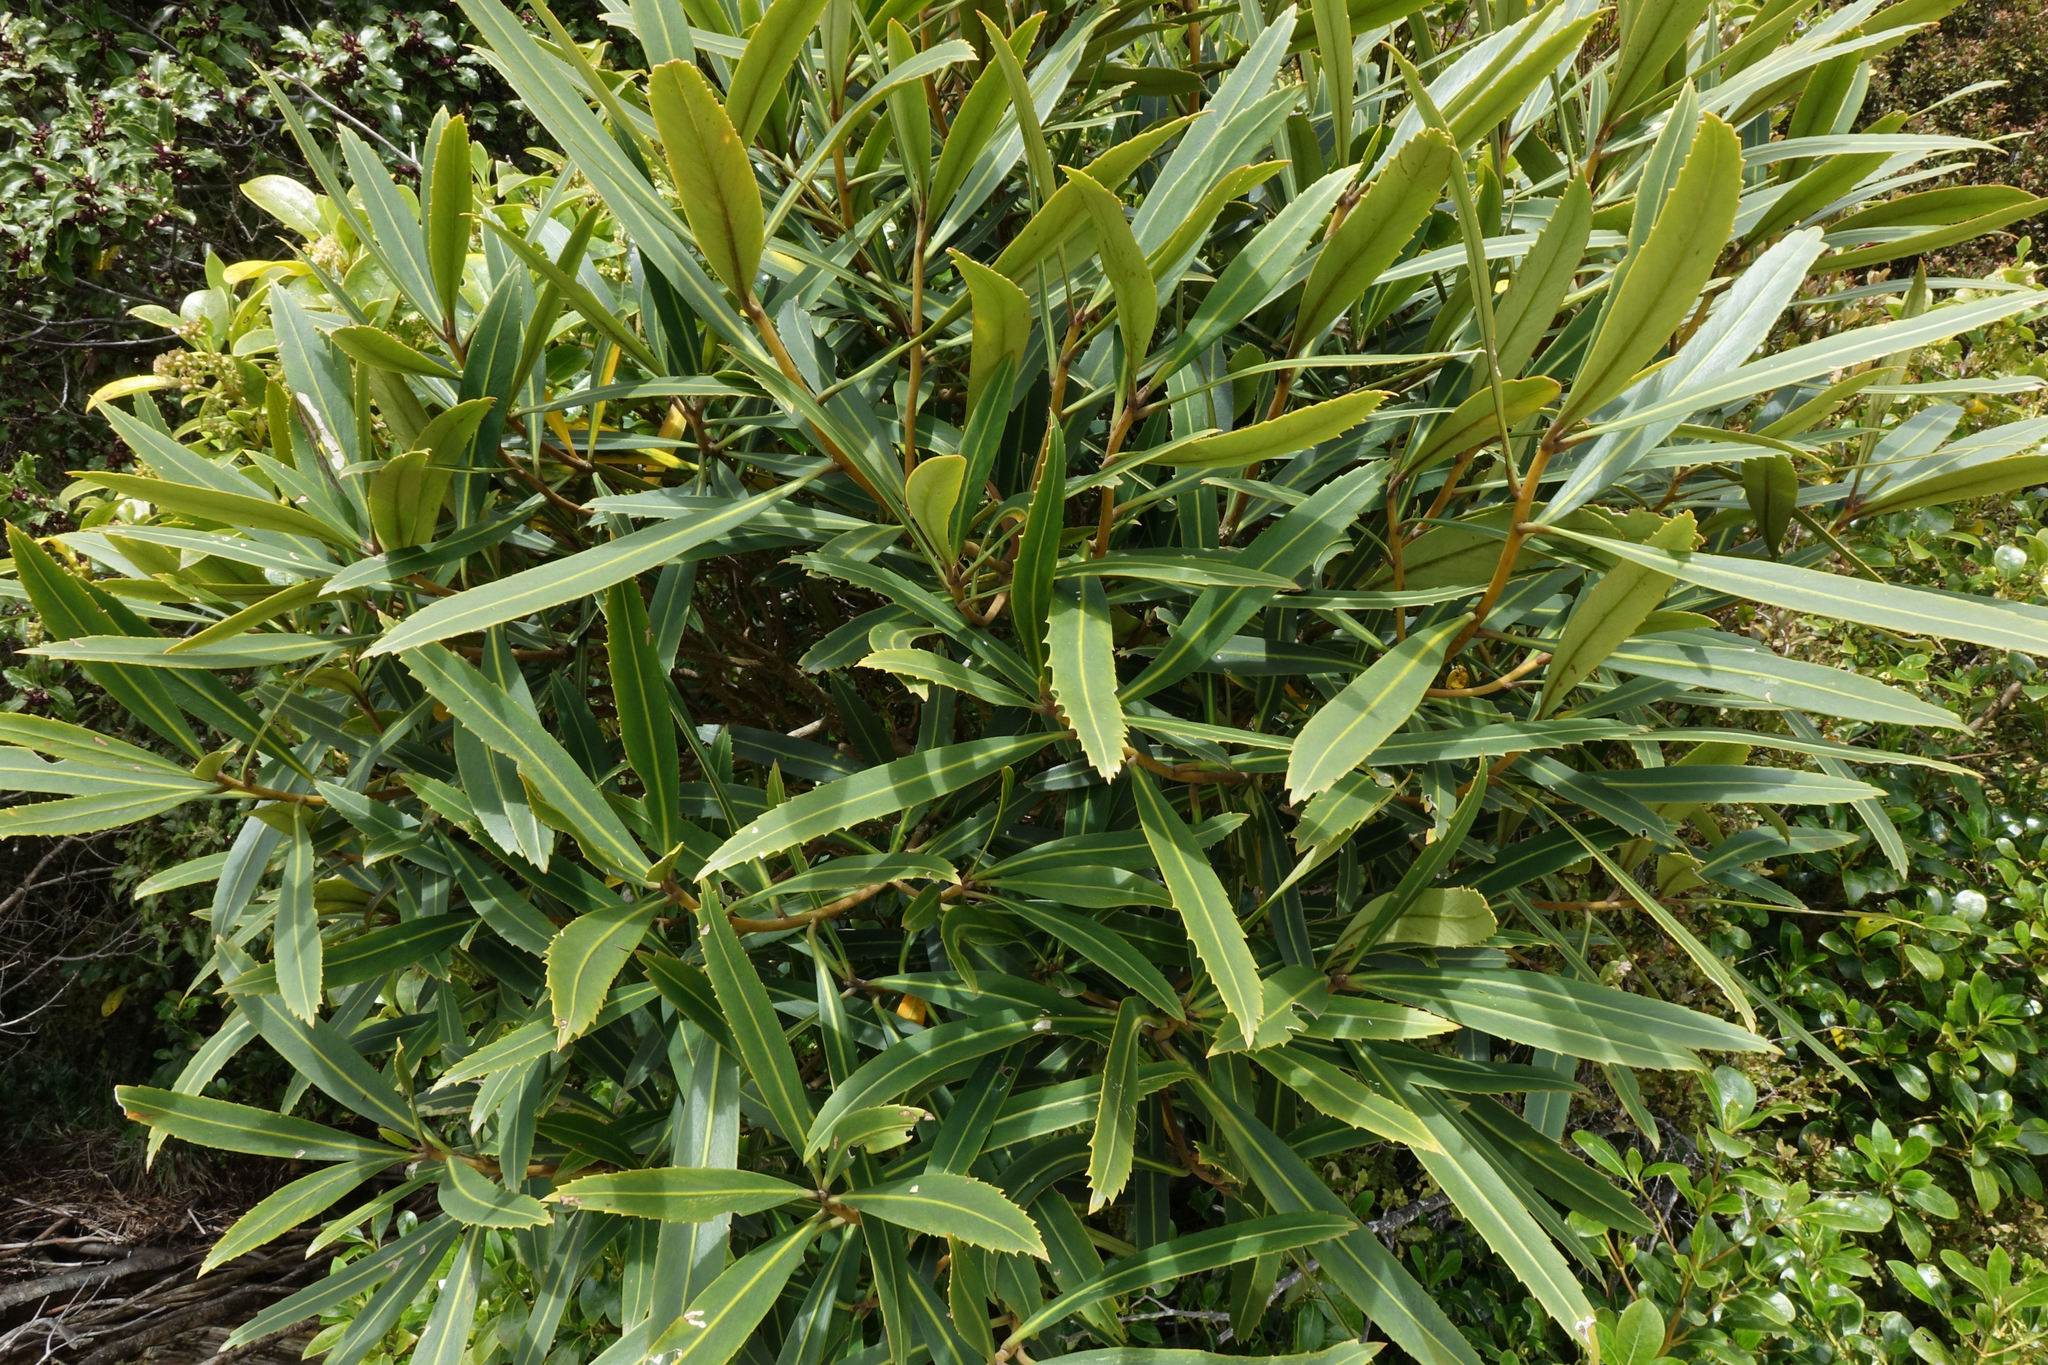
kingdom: Plantae
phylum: Tracheophyta
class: Magnoliopsida
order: Apiales
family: Araliaceae
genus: Pseudopanax
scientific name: Pseudopanax crassifolius
